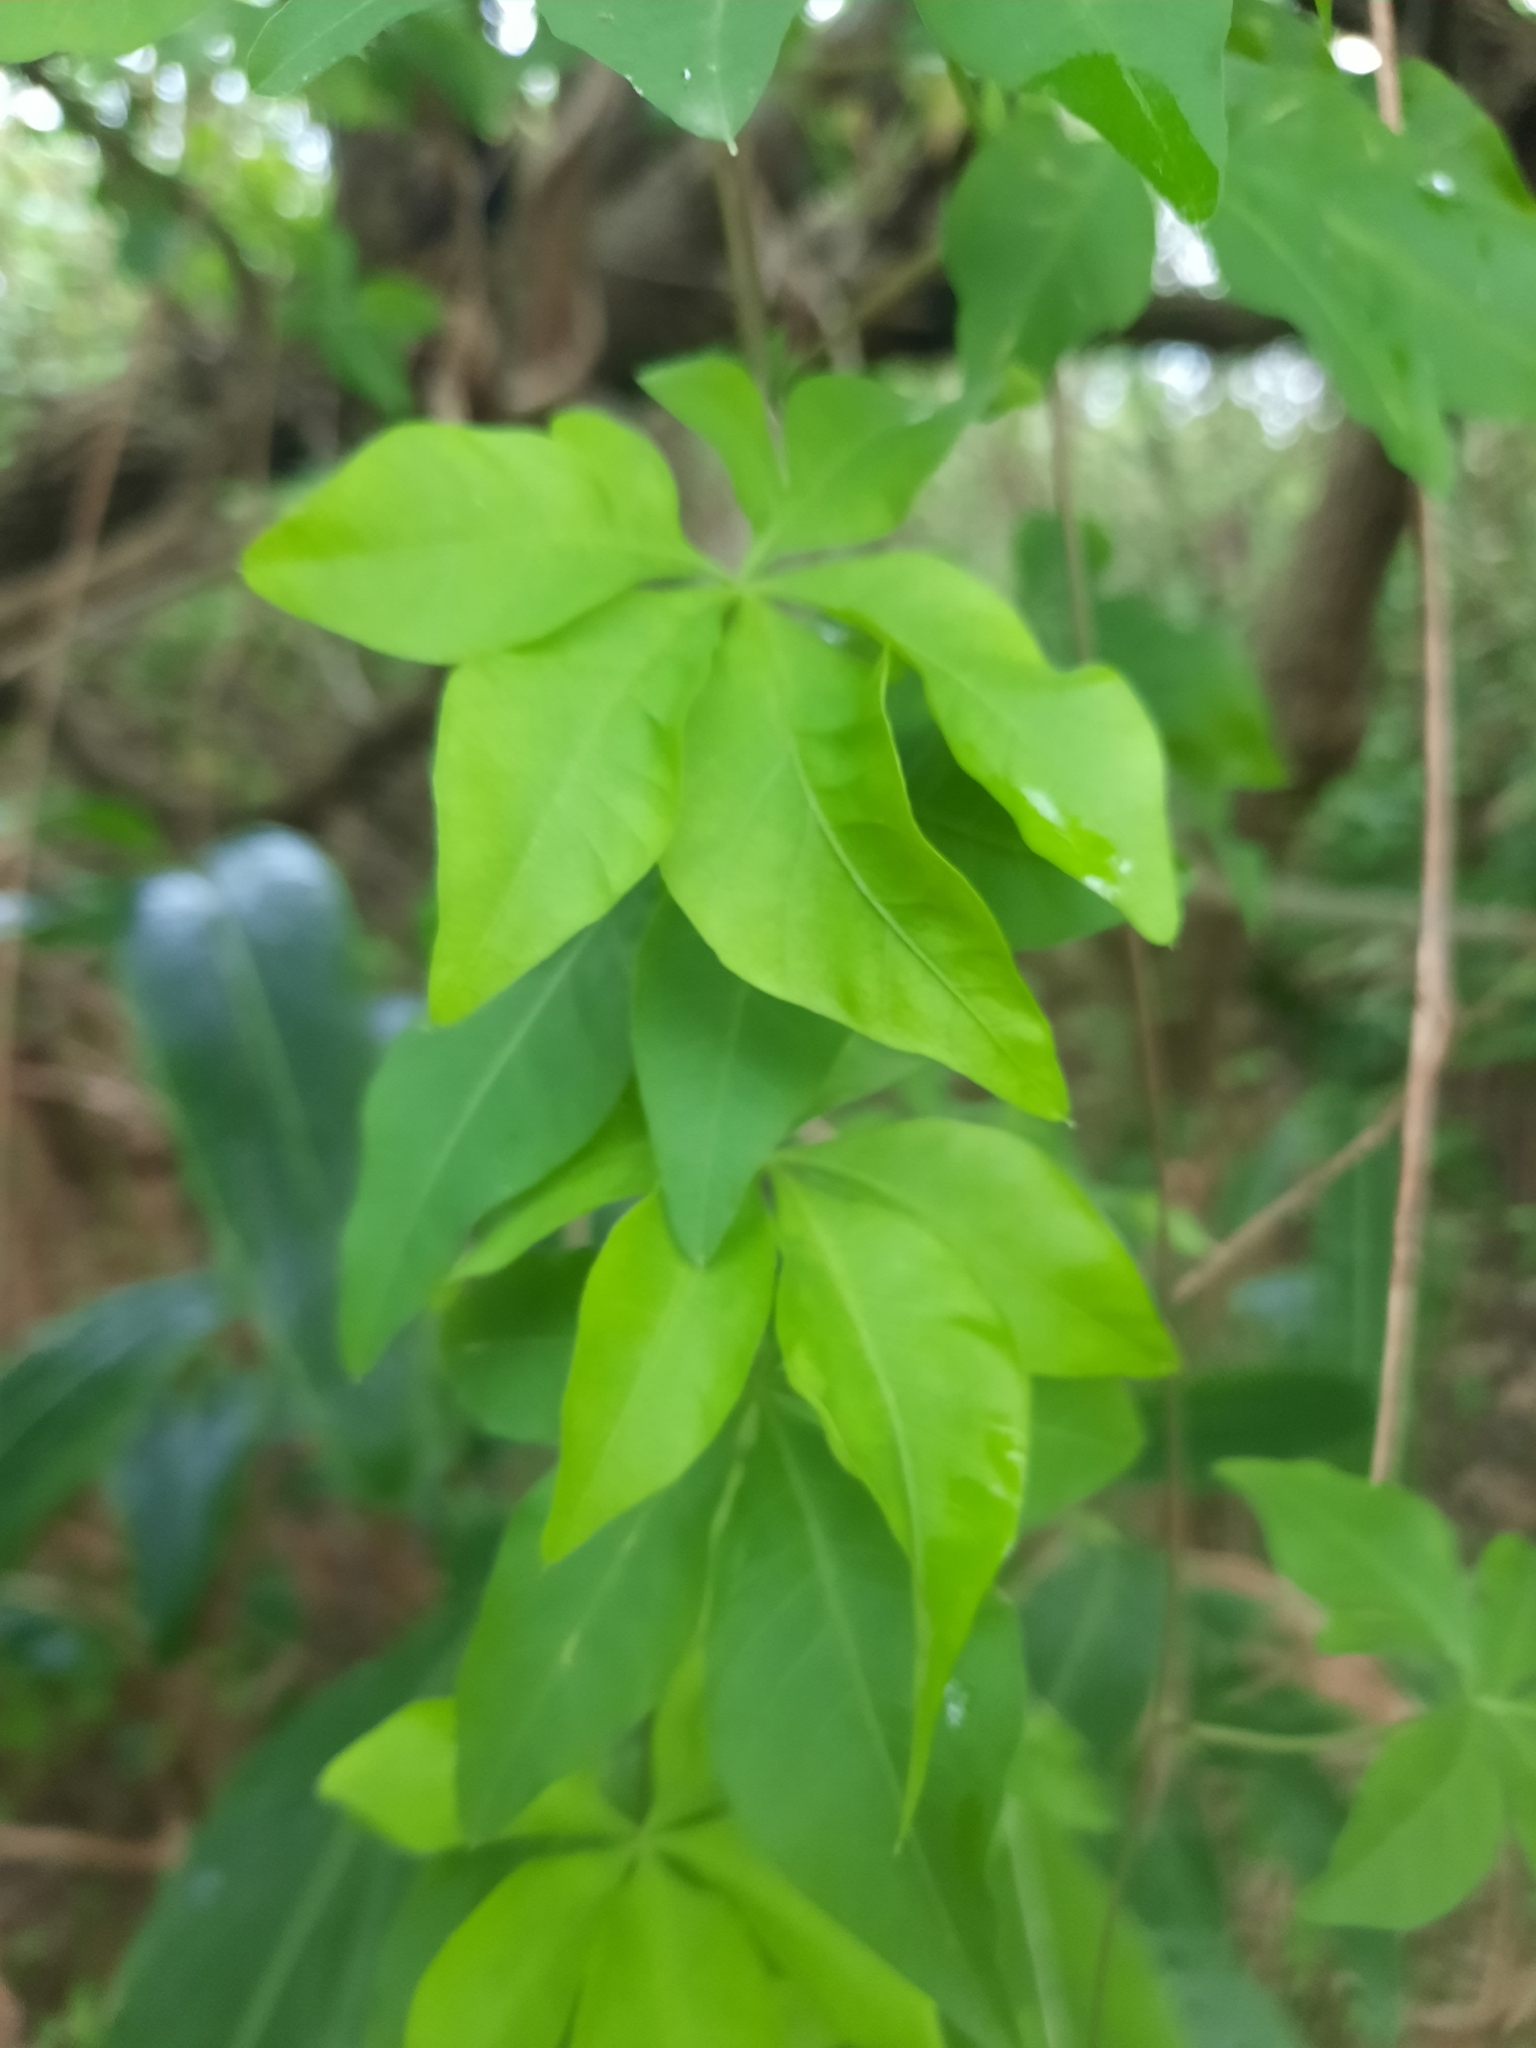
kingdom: Plantae
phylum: Tracheophyta
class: Magnoliopsida
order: Solanales
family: Convolvulaceae
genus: Ipomoea
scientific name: Ipomoea cairica
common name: Mile a minute vine
